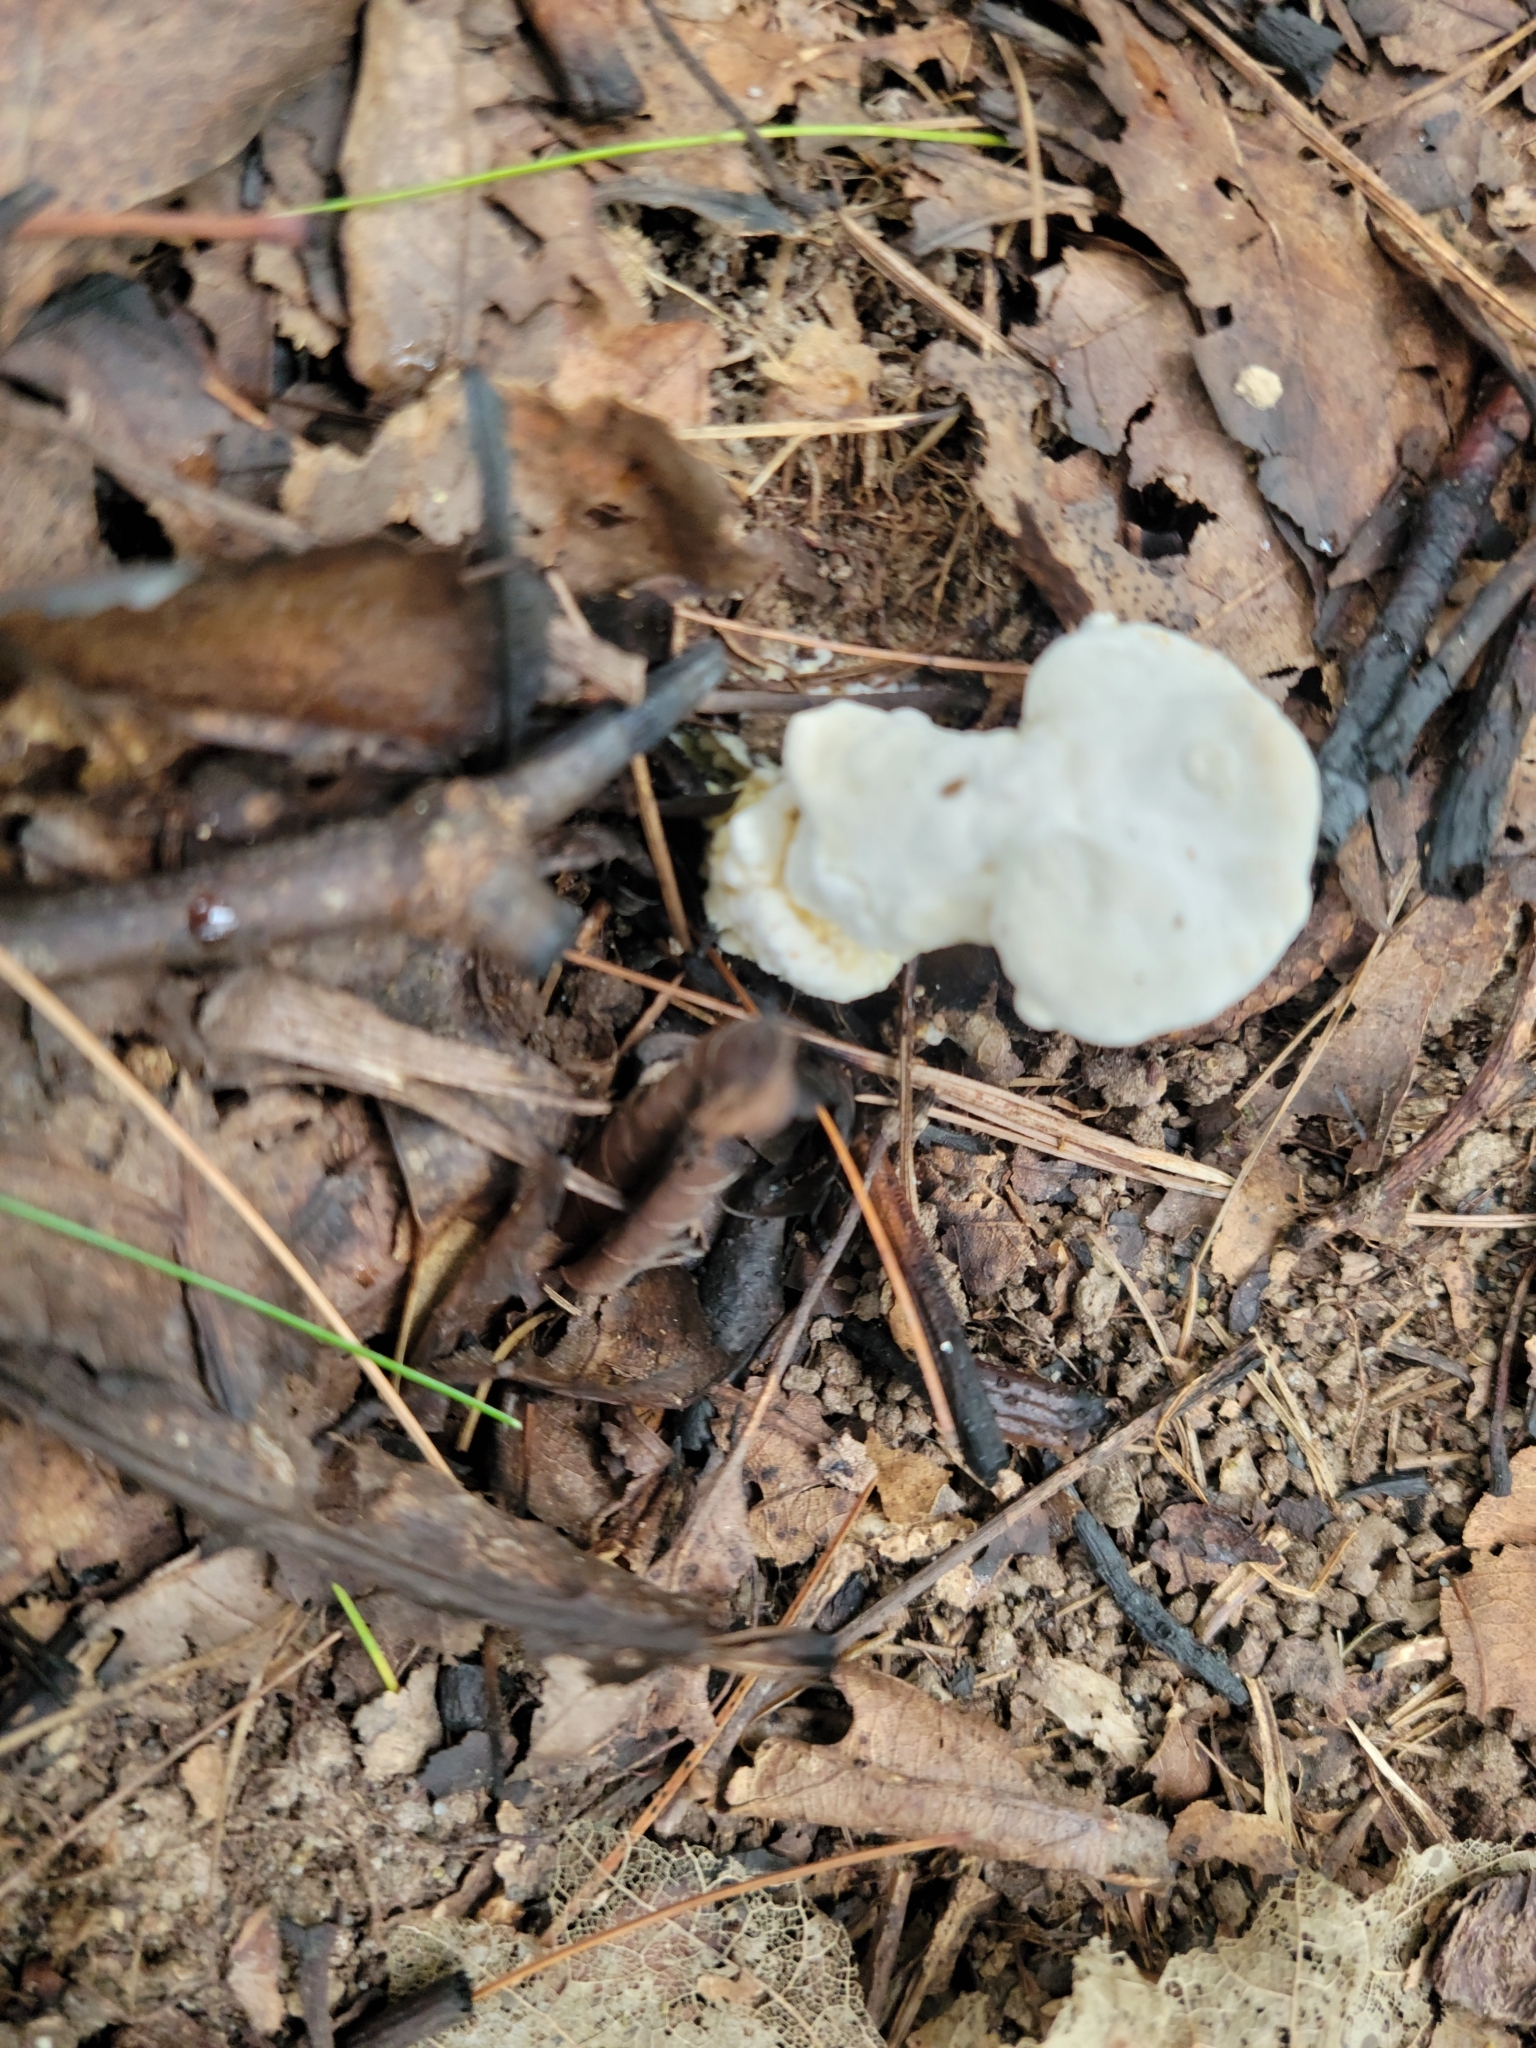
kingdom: Fungi
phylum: Ascomycota
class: Sordariomycetes
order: Hypocreales
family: Hypocreaceae
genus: Hypomyces
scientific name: Hypomyces chrysospermus
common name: Bolete mould
